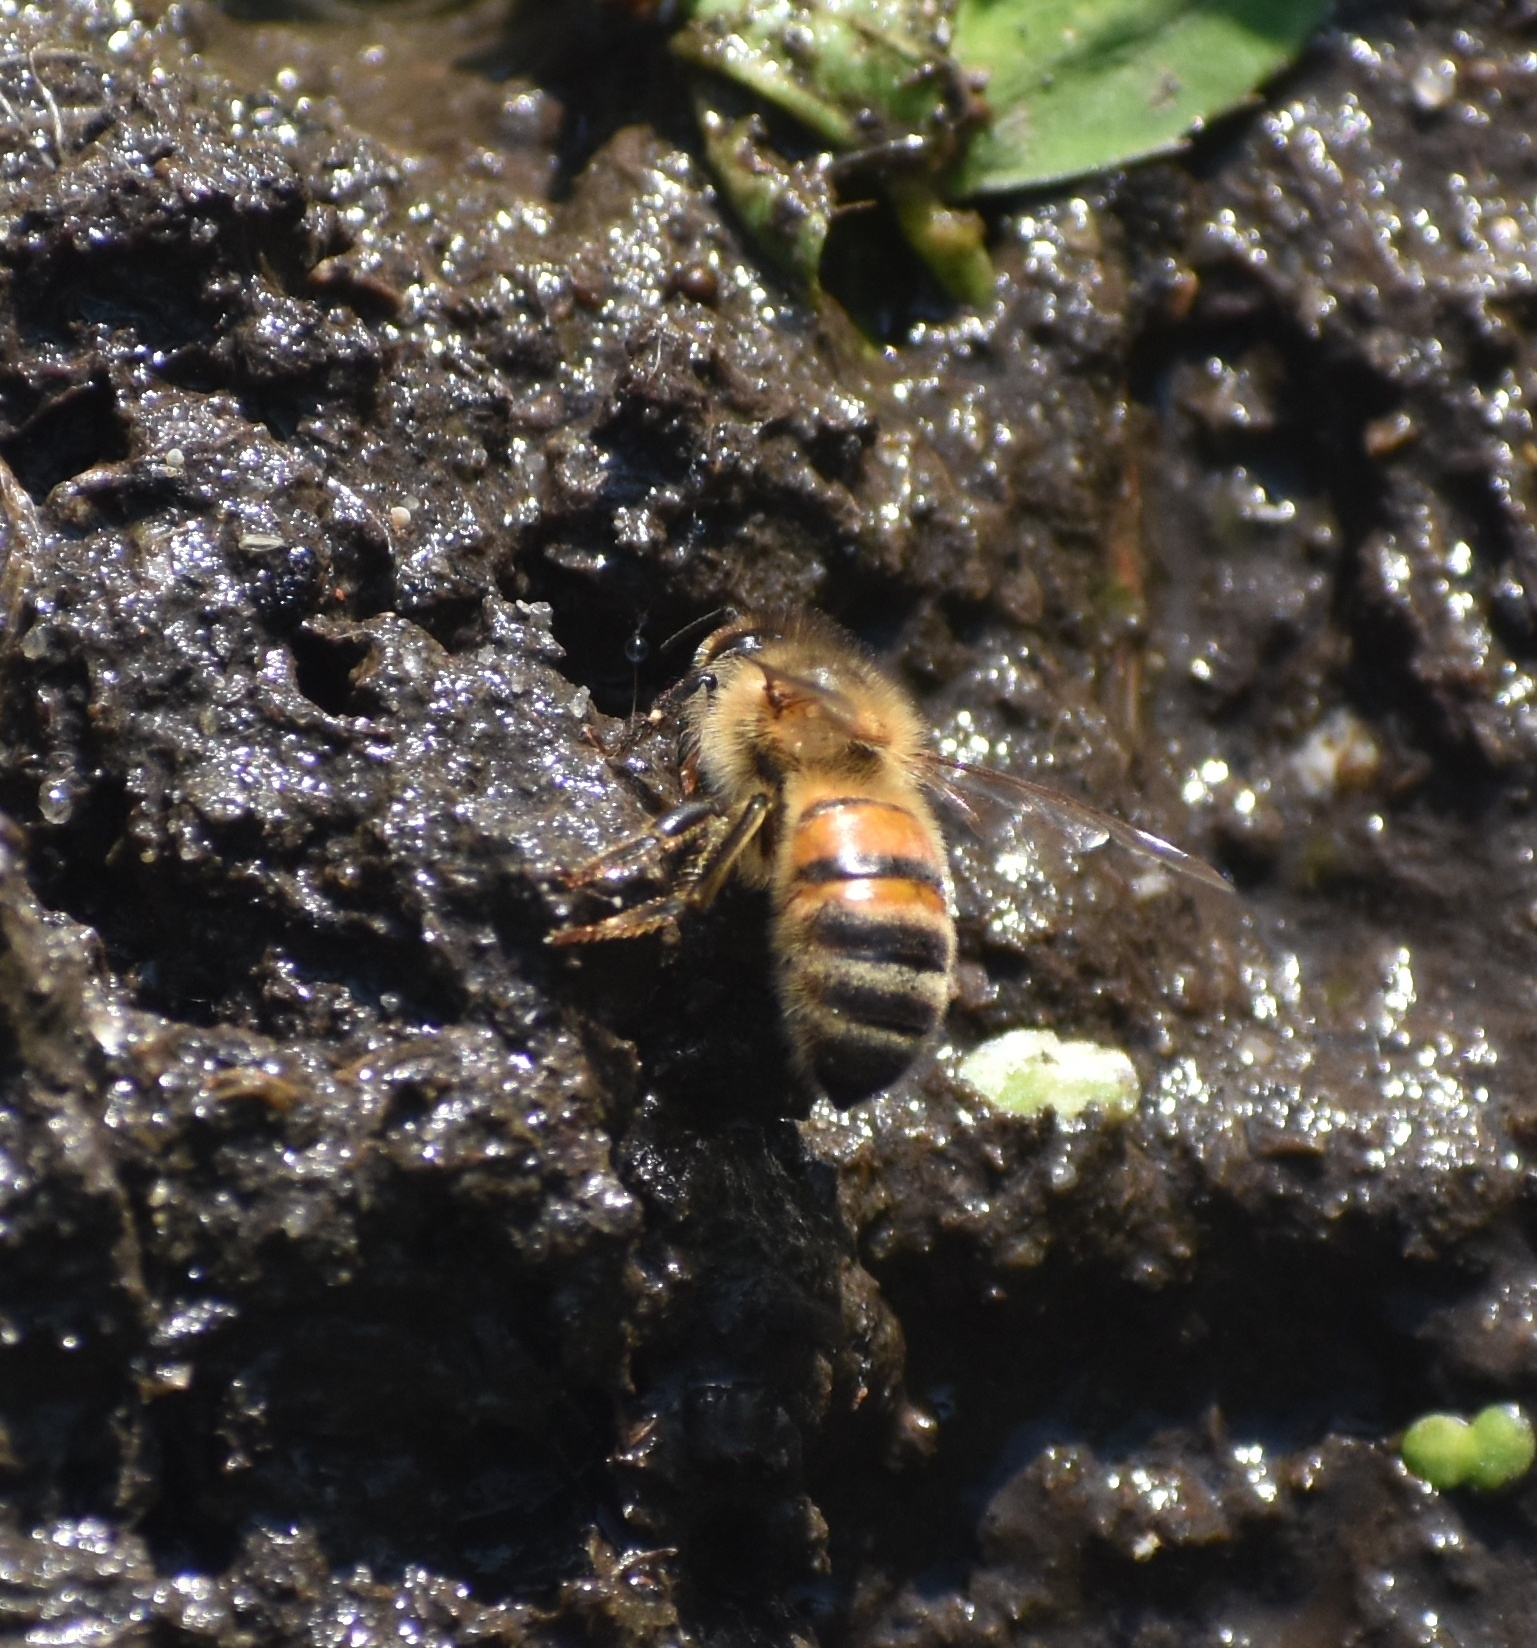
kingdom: Animalia
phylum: Arthropoda
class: Insecta
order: Hymenoptera
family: Apidae
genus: Apis
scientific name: Apis mellifera
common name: Honey bee
